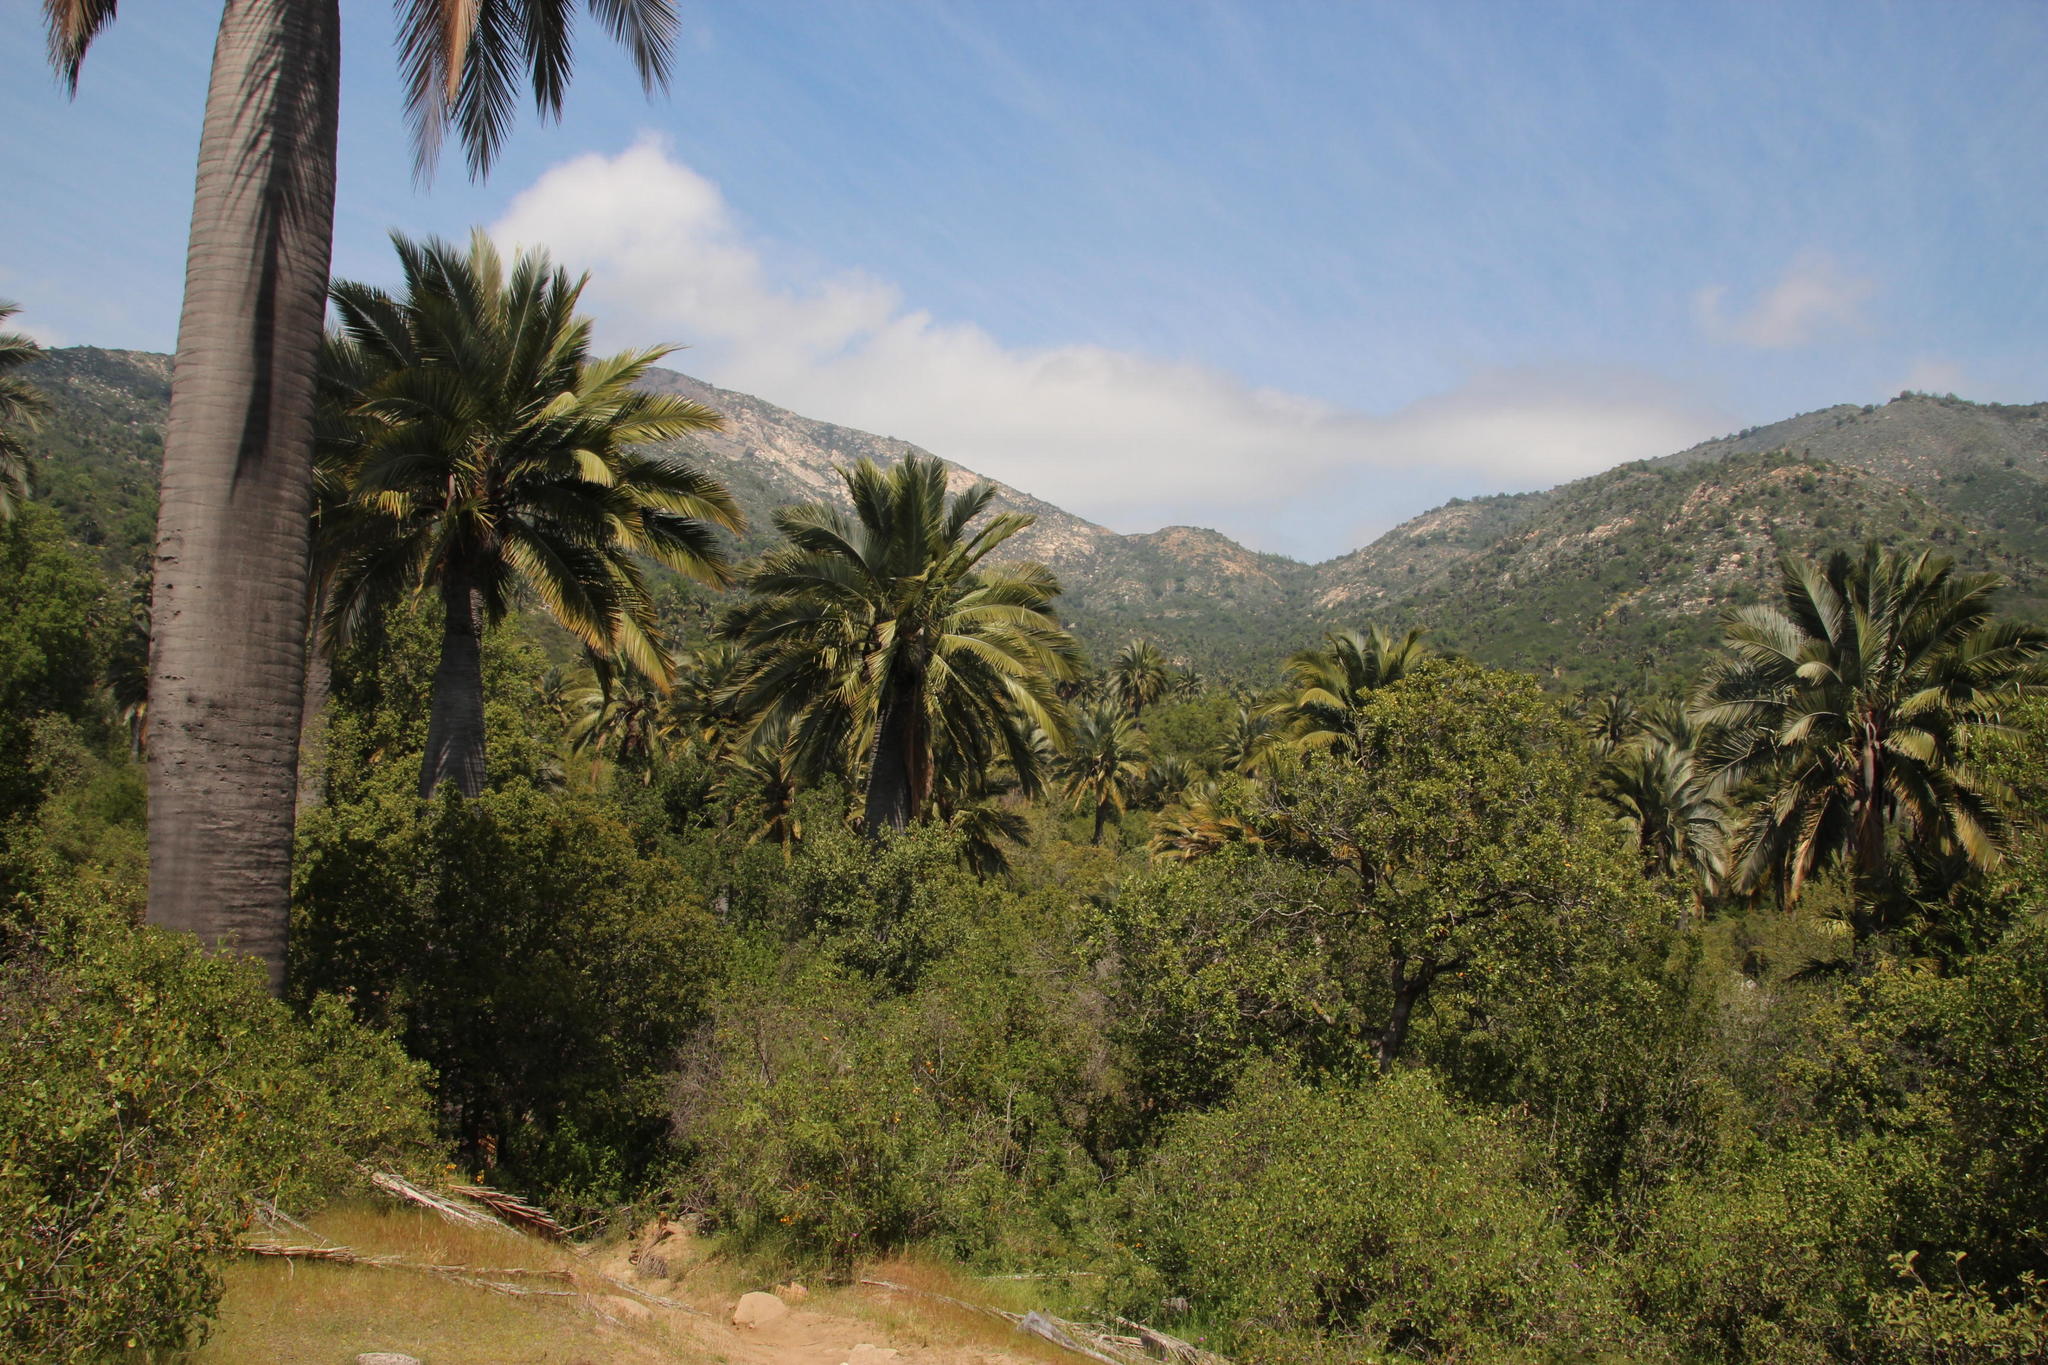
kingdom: Plantae
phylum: Tracheophyta
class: Liliopsida
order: Arecales
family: Arecaceae
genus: Jubaea
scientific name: Jubaea chilensis
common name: Coquito palm
